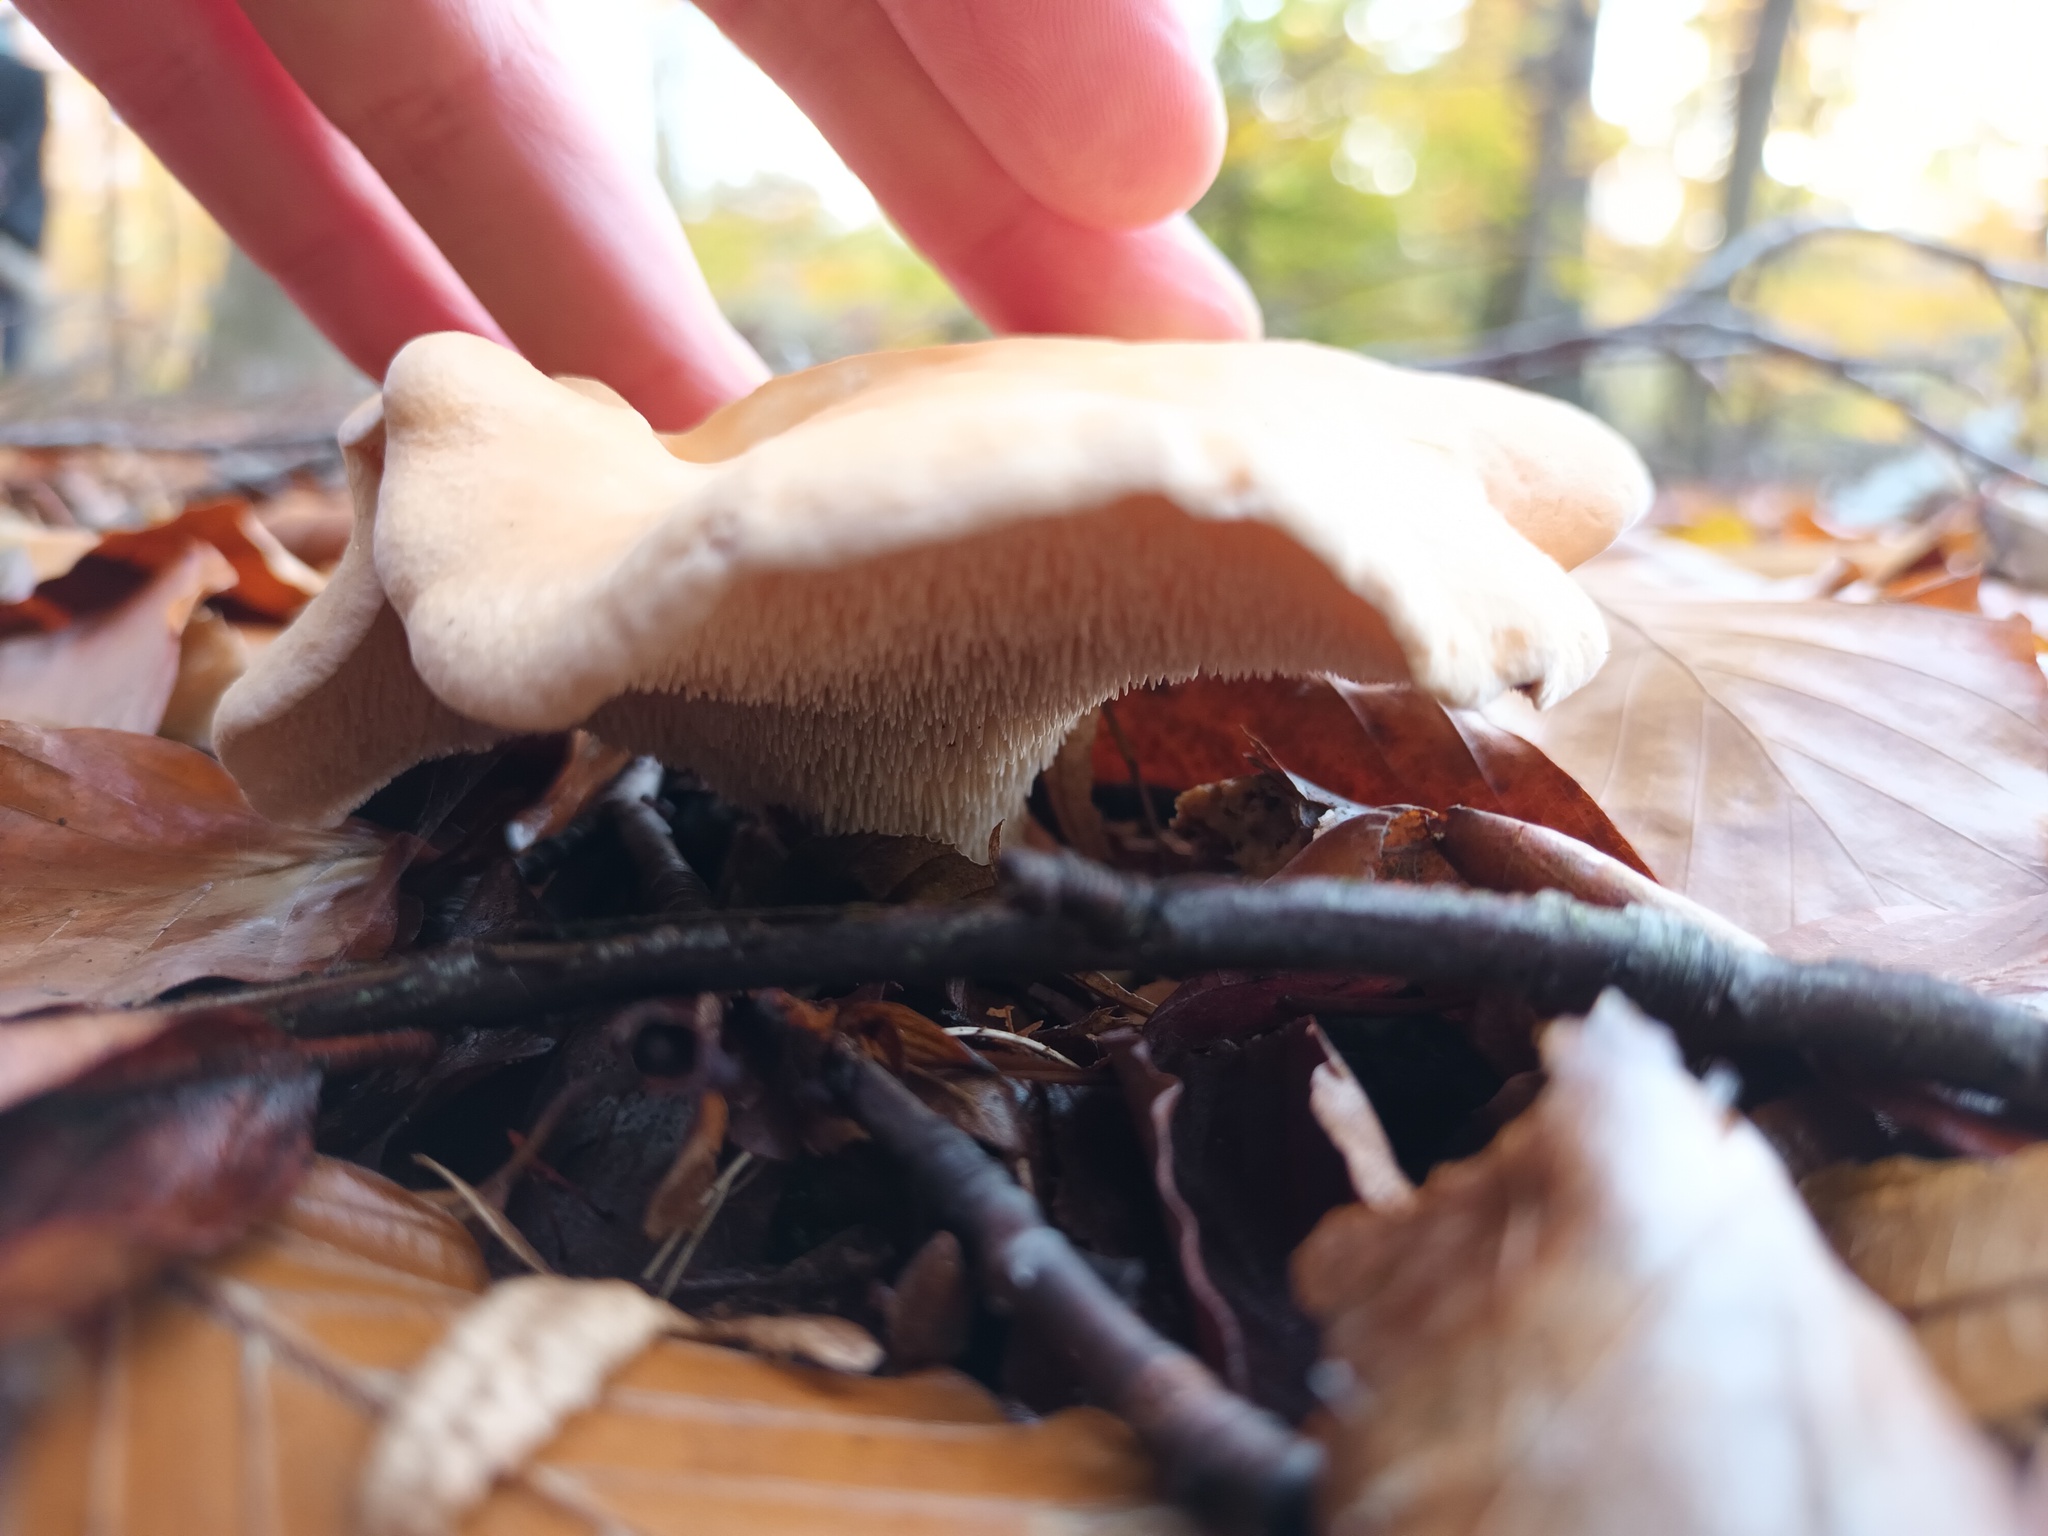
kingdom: Fungi
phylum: Basidiomycota
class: Agaricomycetes
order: Cantharellales
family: Hydnaceae
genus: Hydnum
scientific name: Hydnum repandum
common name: Wood hedgehog
